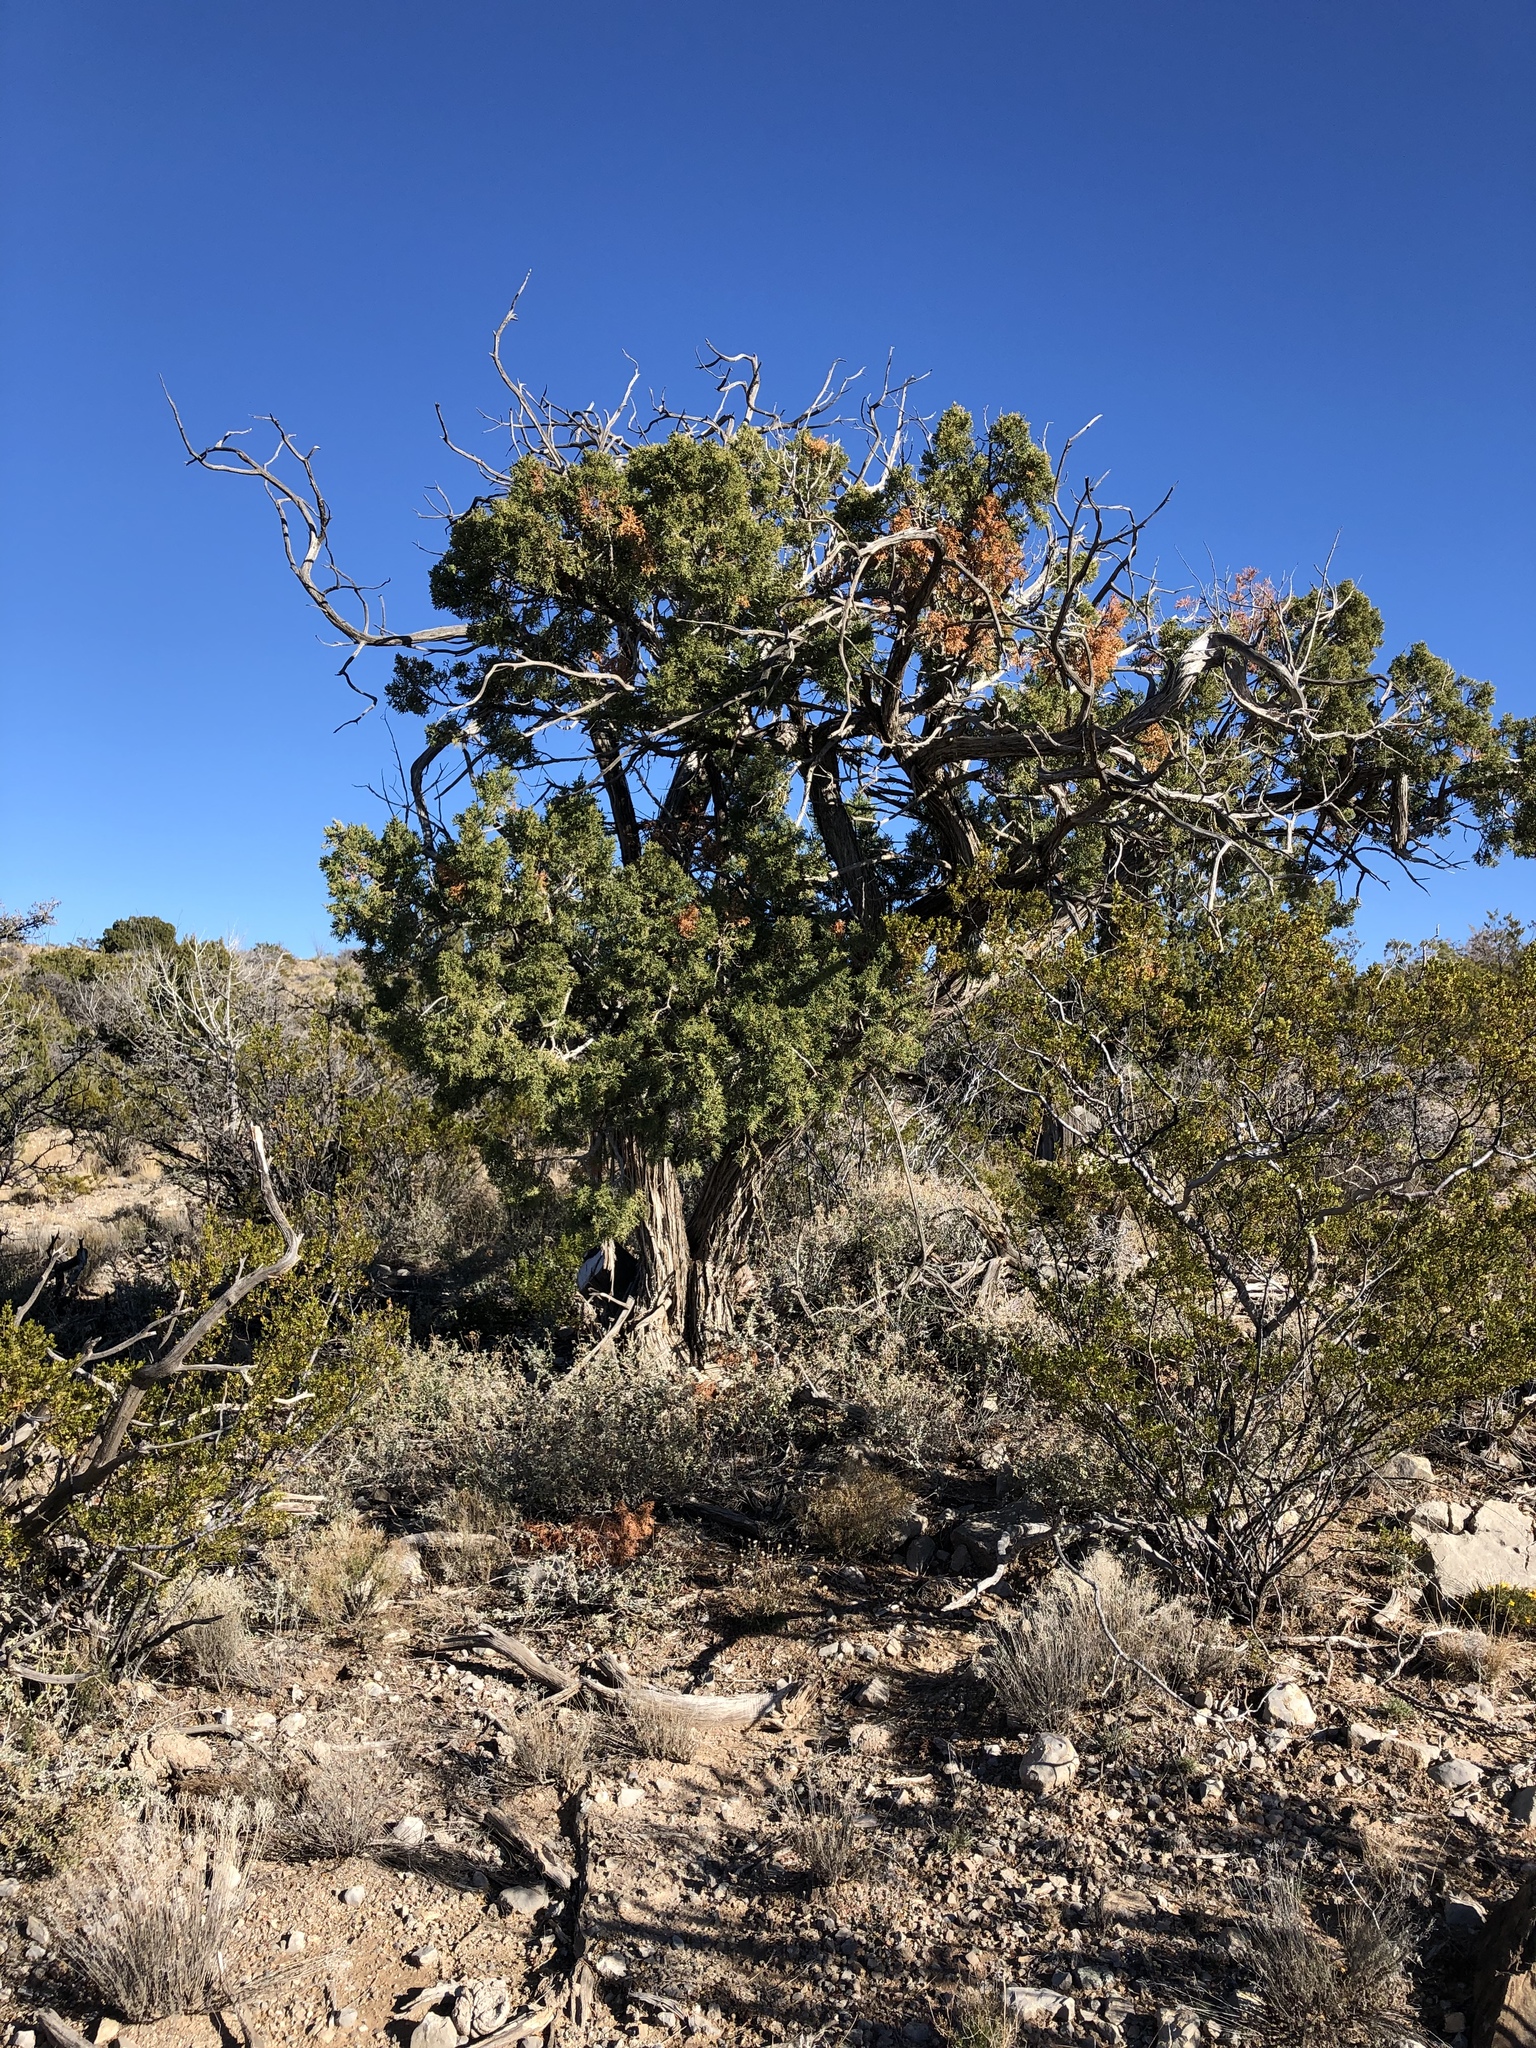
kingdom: Plantae
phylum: Tracheophyta
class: Pinopsida
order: Pinales
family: Pinaceae
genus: Pinus
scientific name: Pinus edulis
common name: Colorado pinyon
